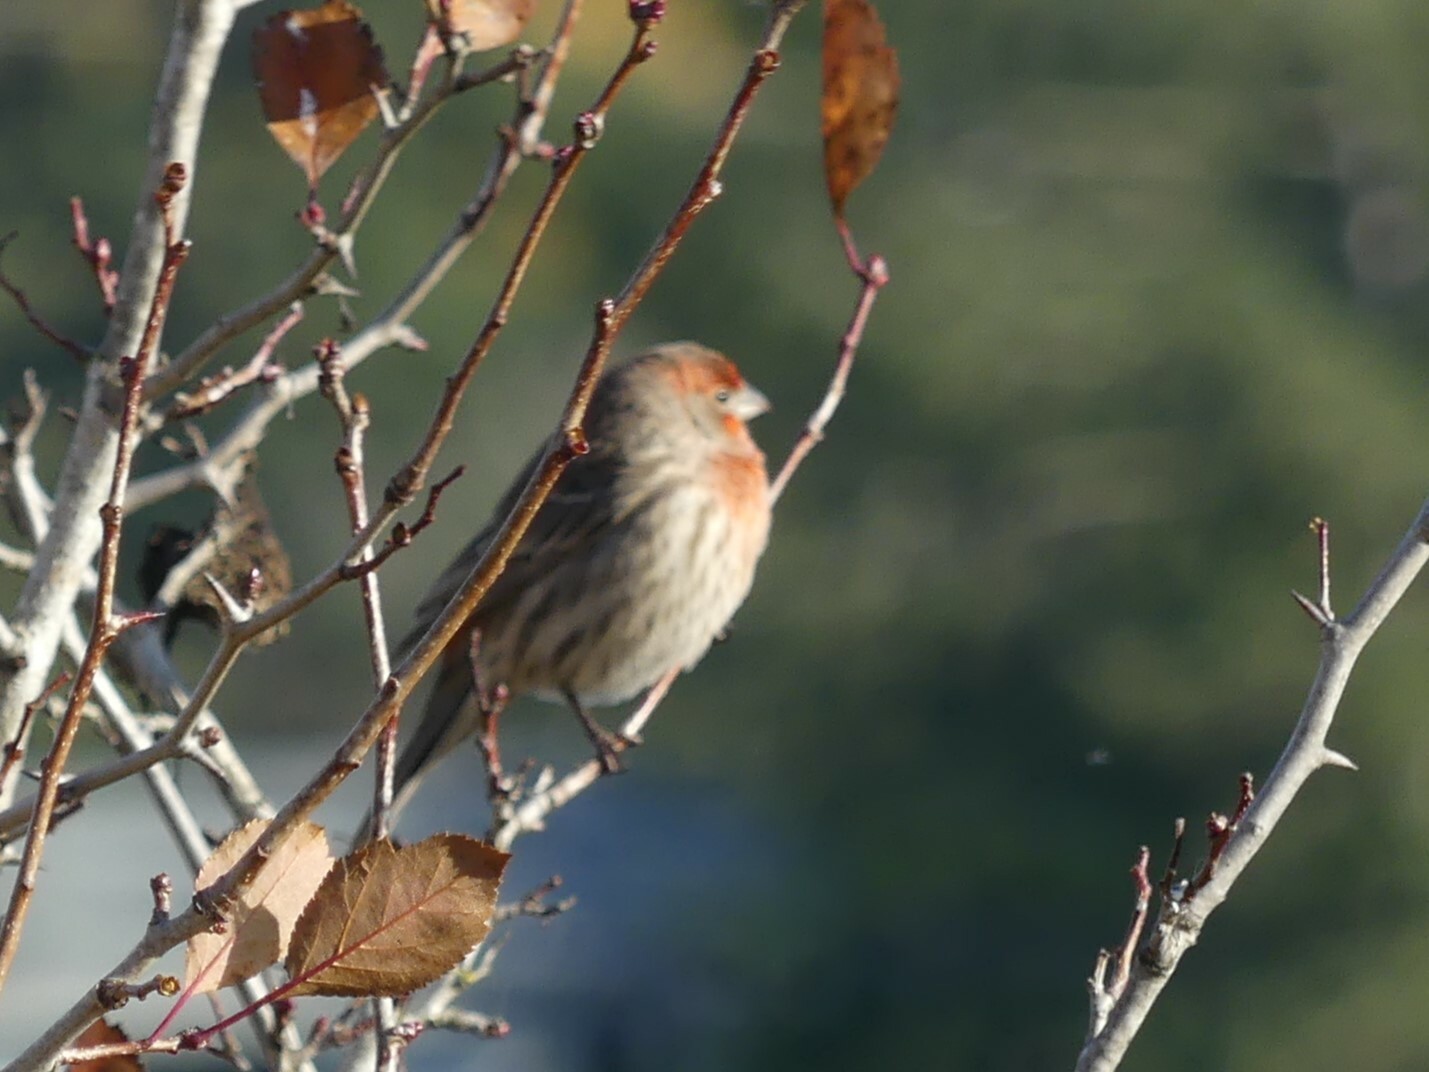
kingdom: Animalia
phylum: Chordata
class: Aves
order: Passeriformes
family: Fringillidae
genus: Haemorhous
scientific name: Haemorhous mexicanus
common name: House finch
